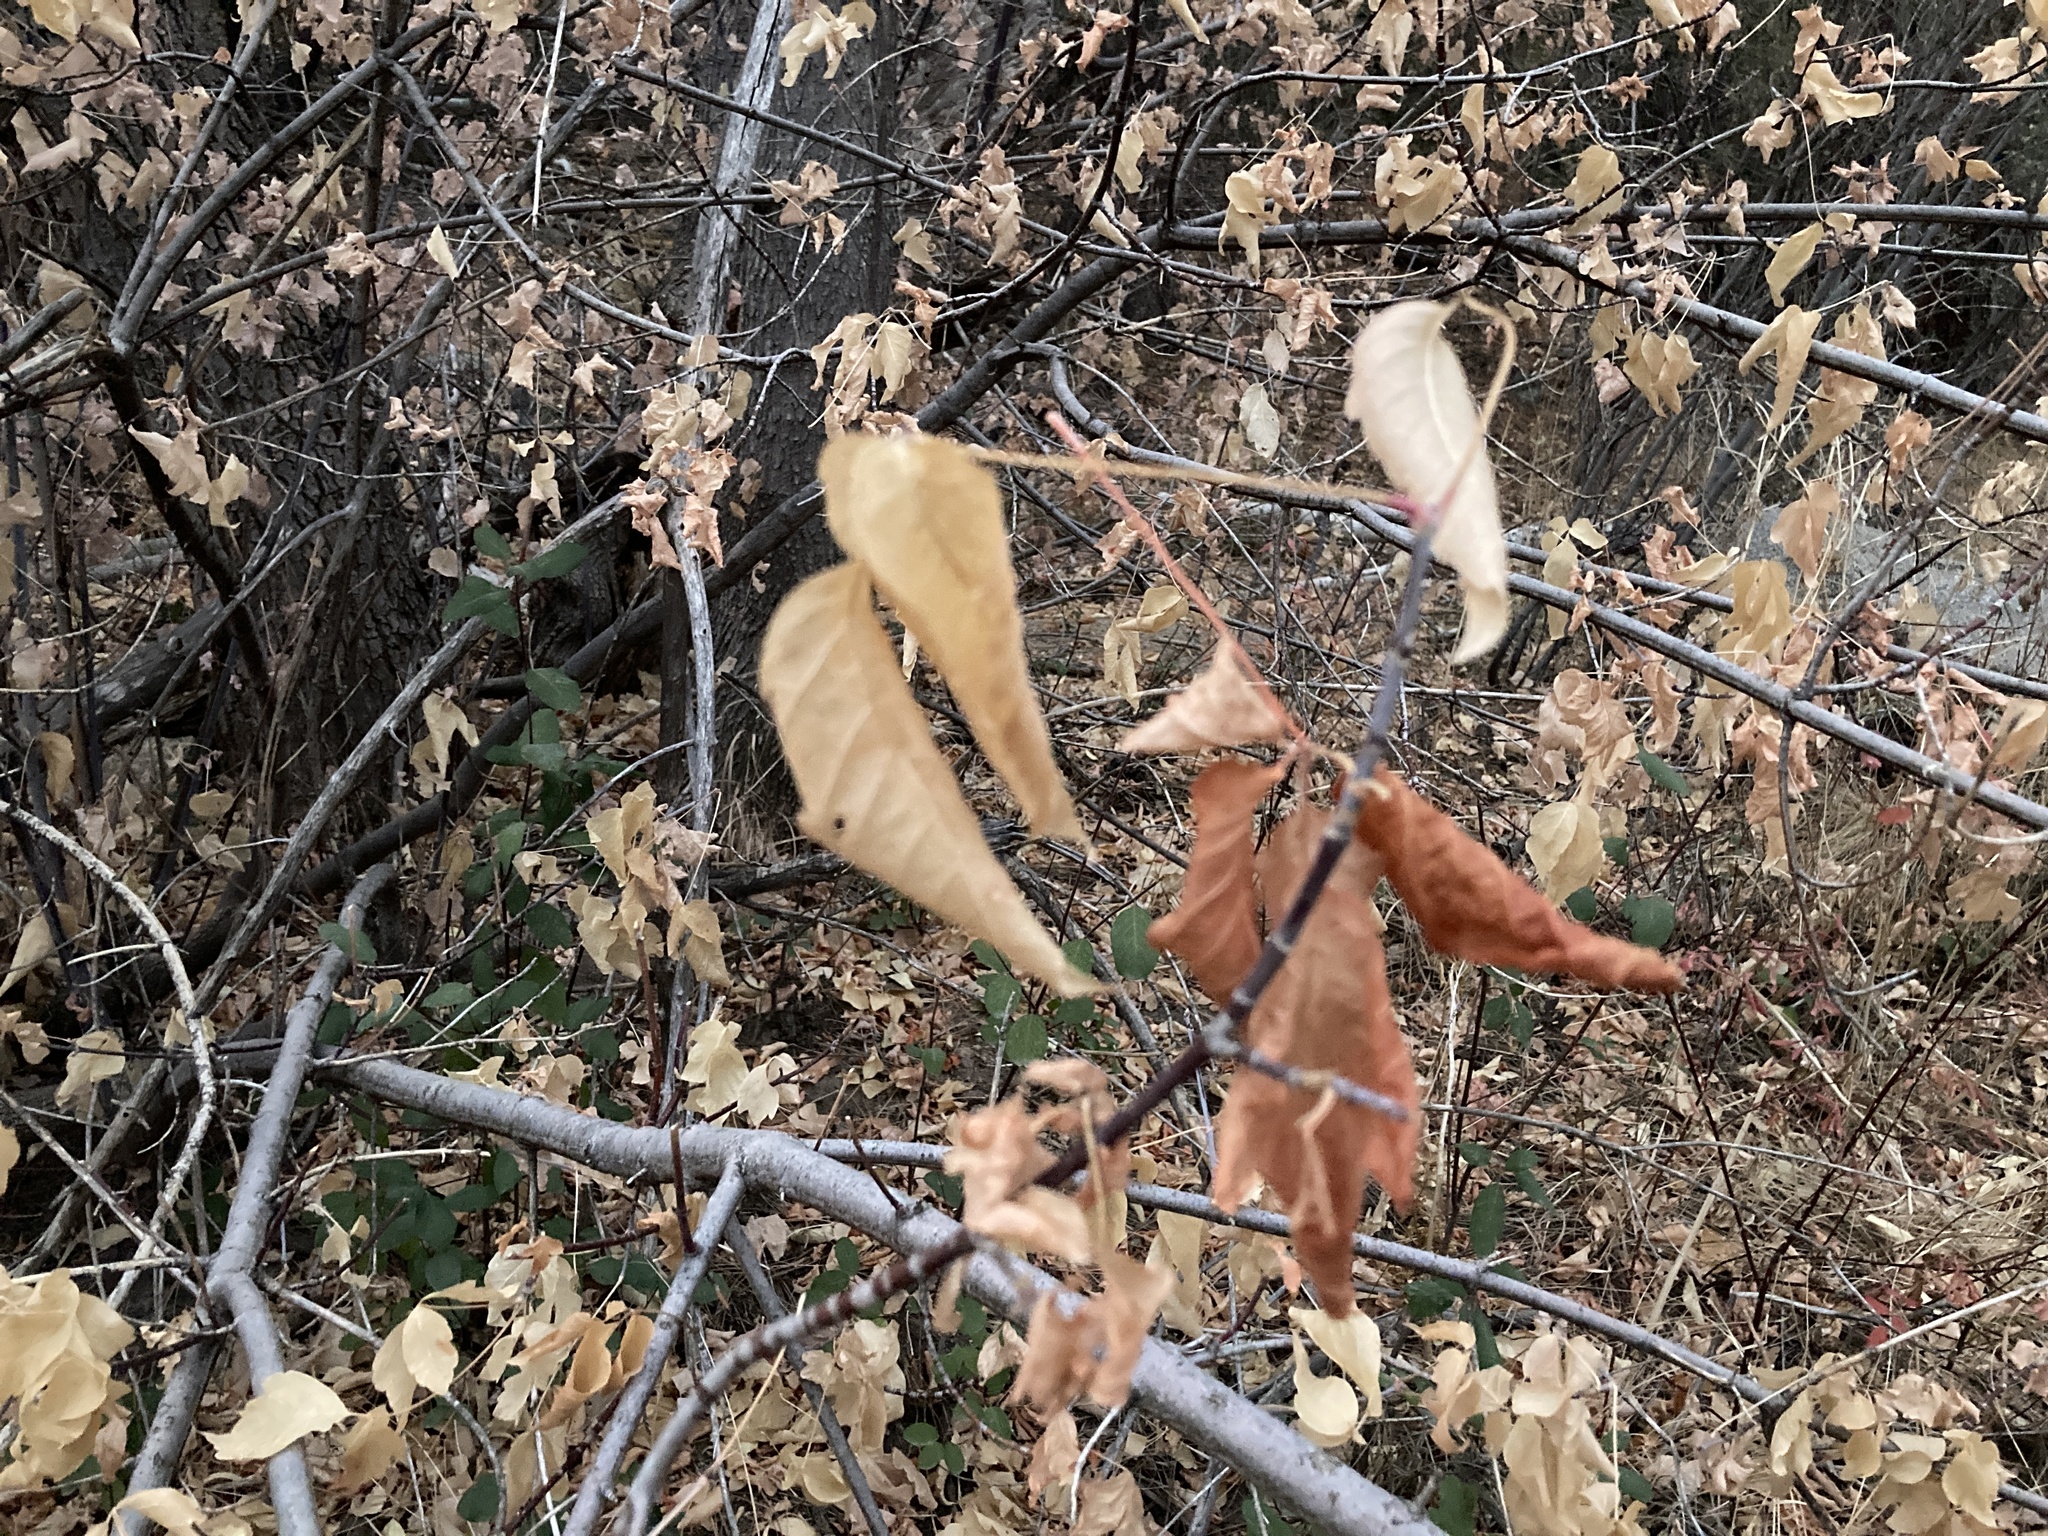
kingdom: Plantae
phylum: Tracheophyta
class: Magnoliopsida
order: Sapindales
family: Sapindaceae
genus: Acer
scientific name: Acer negundo
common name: Ashleaf maple
